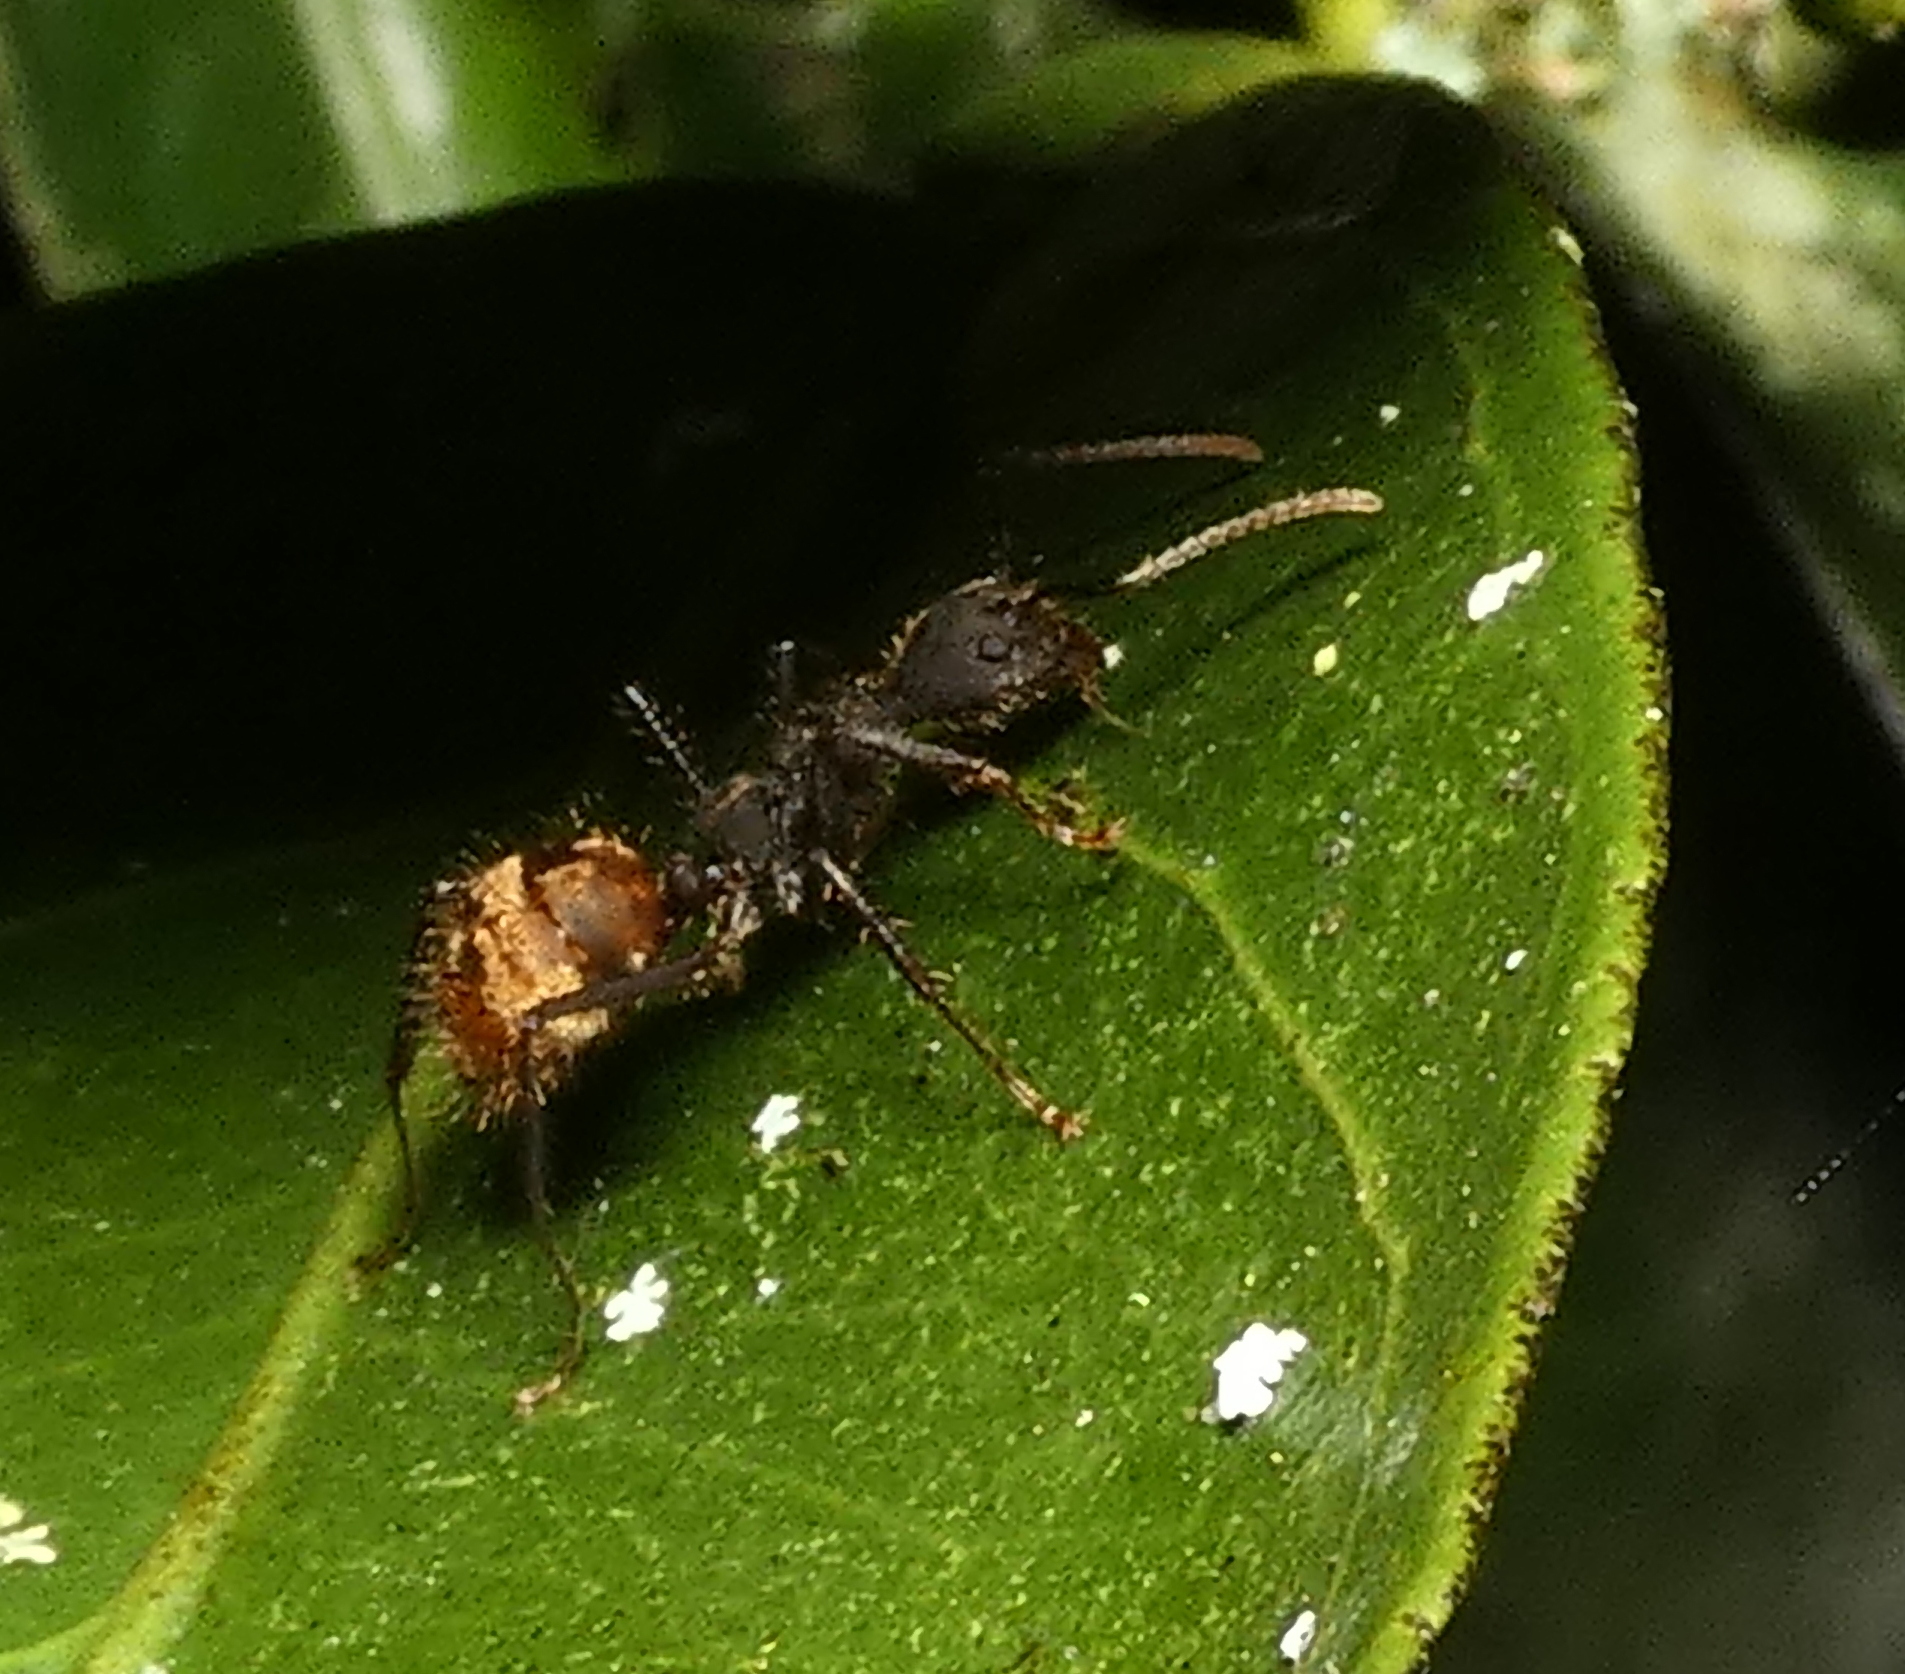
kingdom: Animalia
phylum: Arthropoda
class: Insecta
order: Hymenoptera
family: Formicidae
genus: Dolichoderus
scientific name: Dolichoderus bidens
